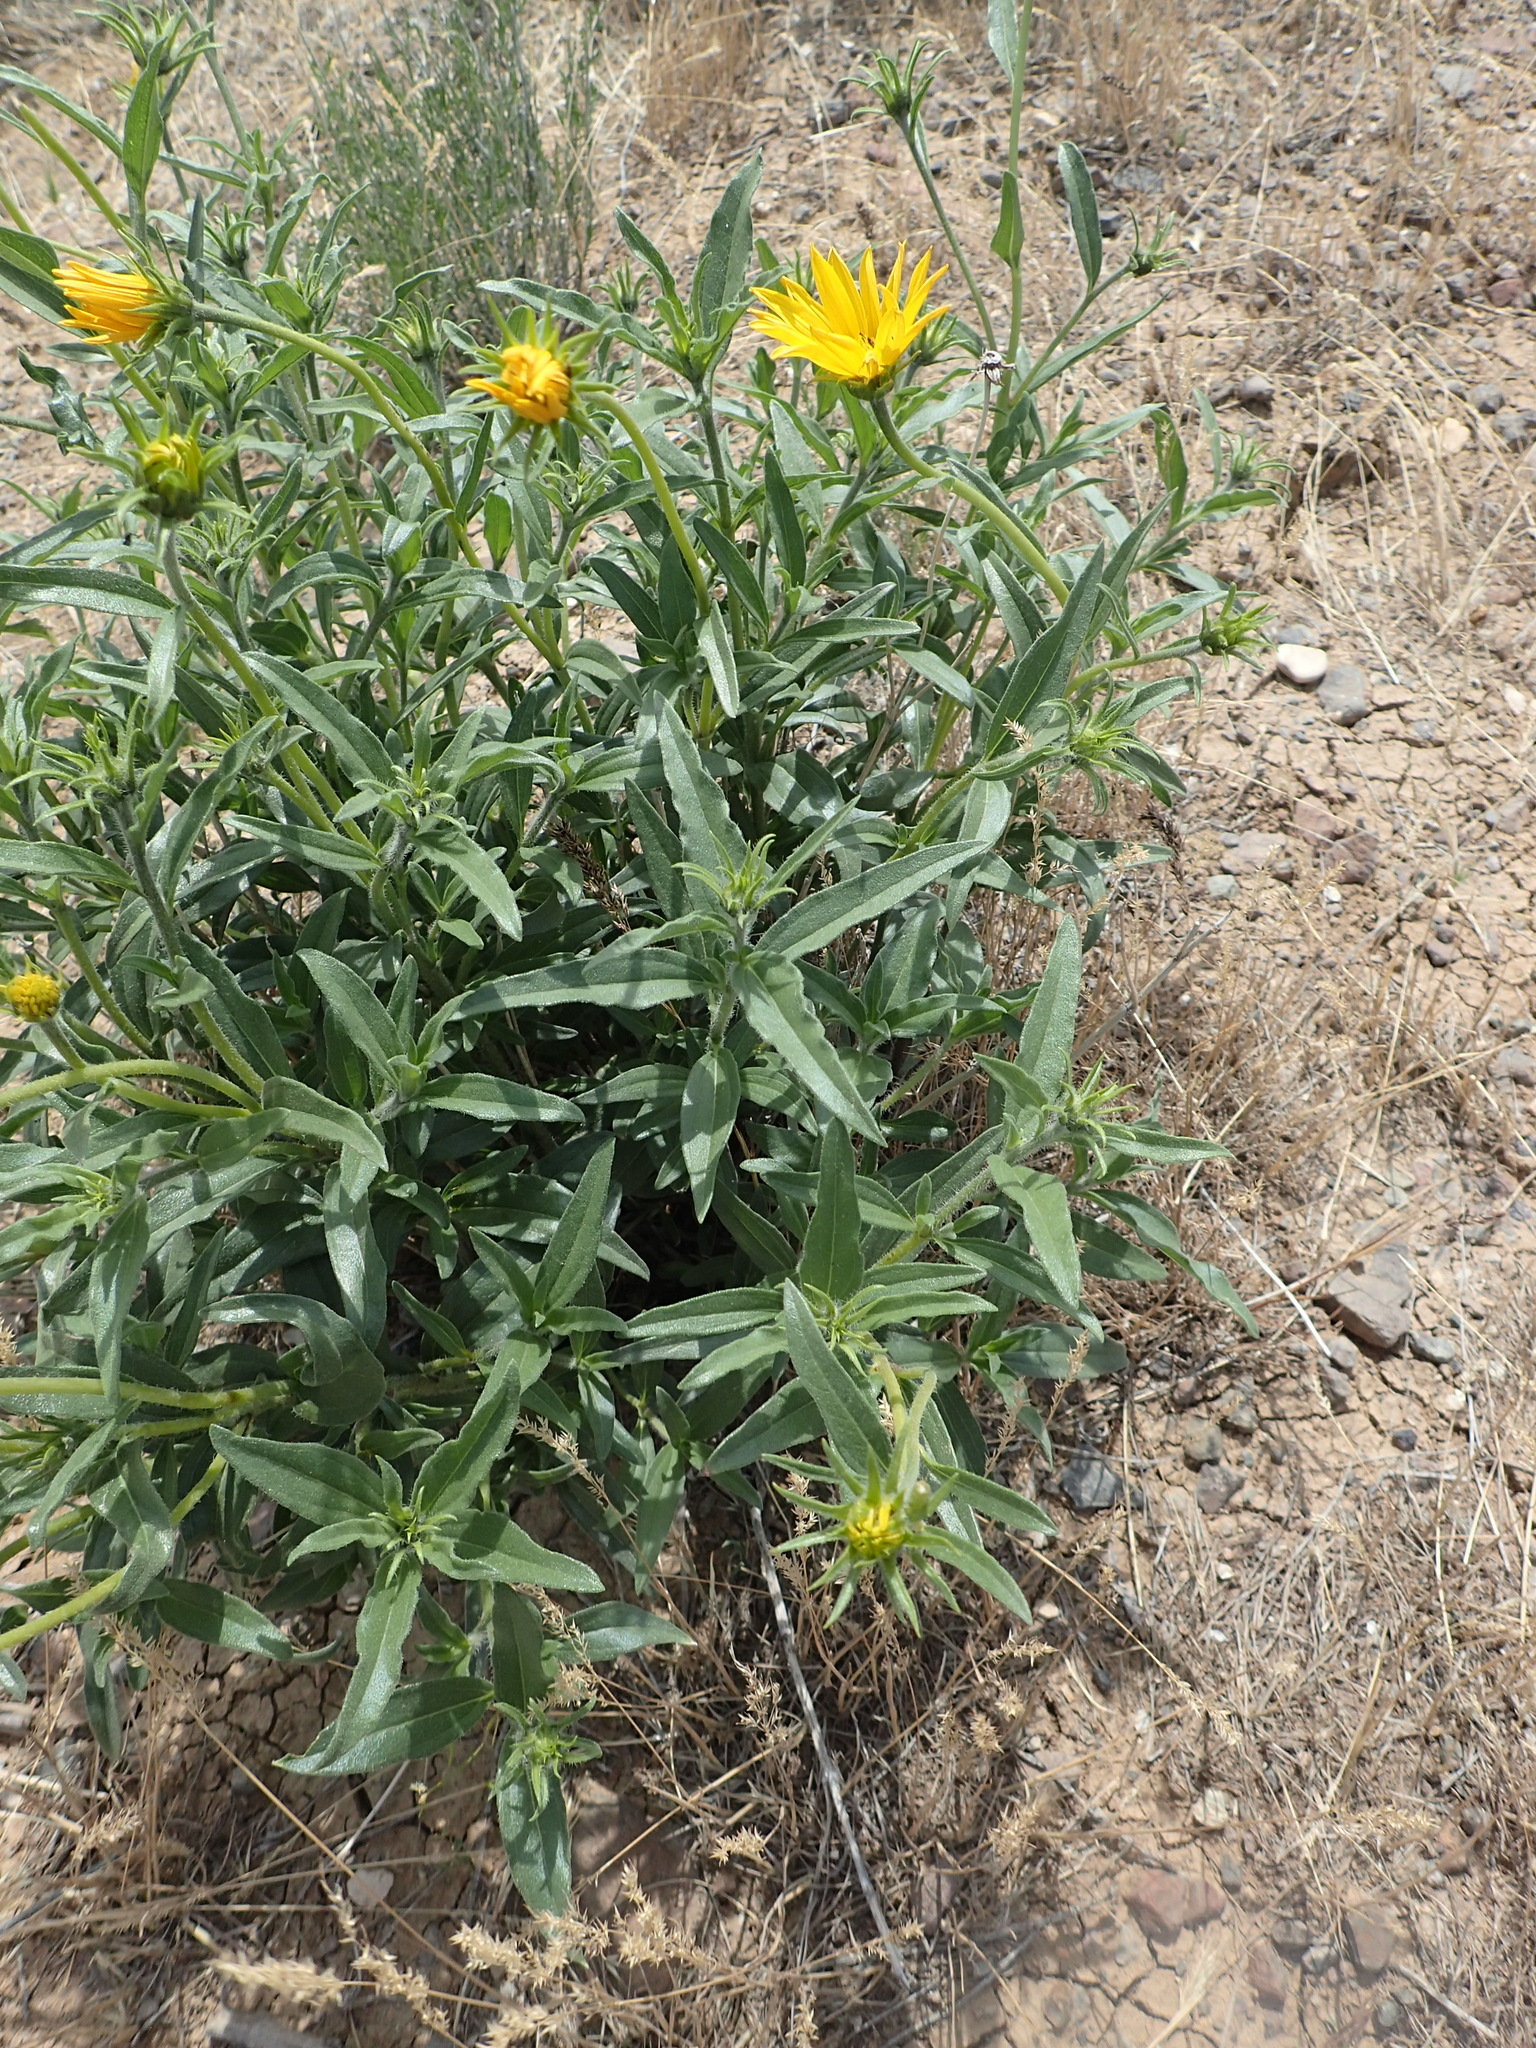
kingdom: Plantae
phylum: Tracheophyta
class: Magnoliopsida
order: Asterales
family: Asteraceae
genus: Helianthus
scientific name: Helianthus cusickii
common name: Cusick's sunflower
